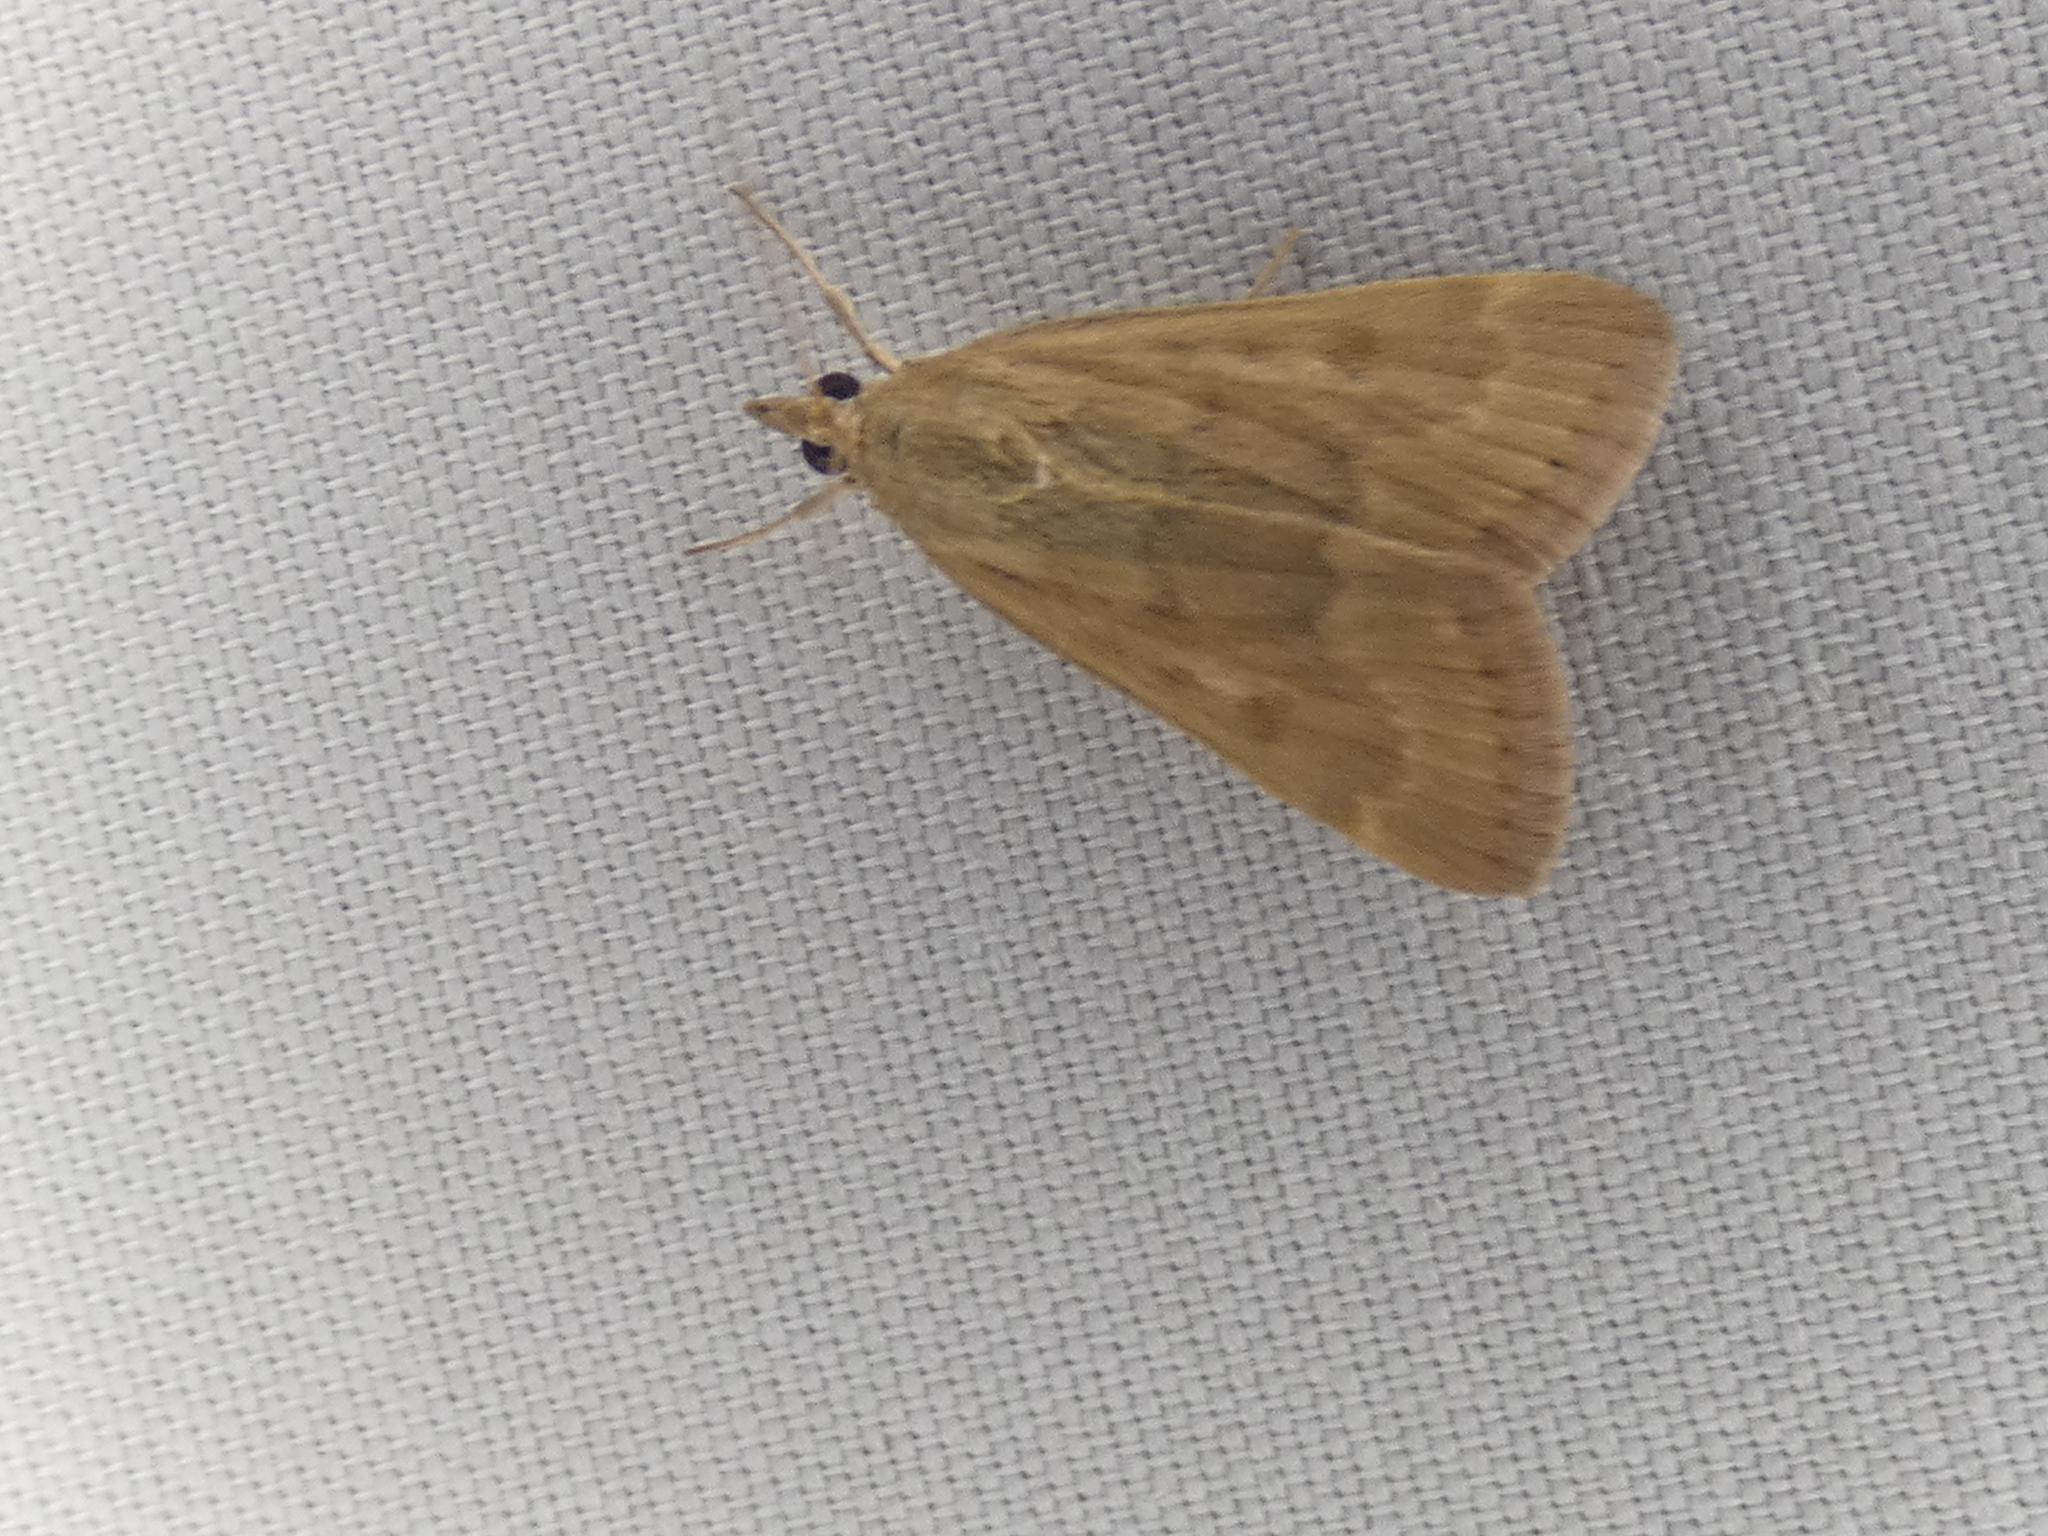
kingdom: Animalia
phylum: Arthropoda
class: Insecta
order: Lepidoptera
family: Crambidae
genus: Achyra
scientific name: Achyra rantalis
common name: Garden webworm
